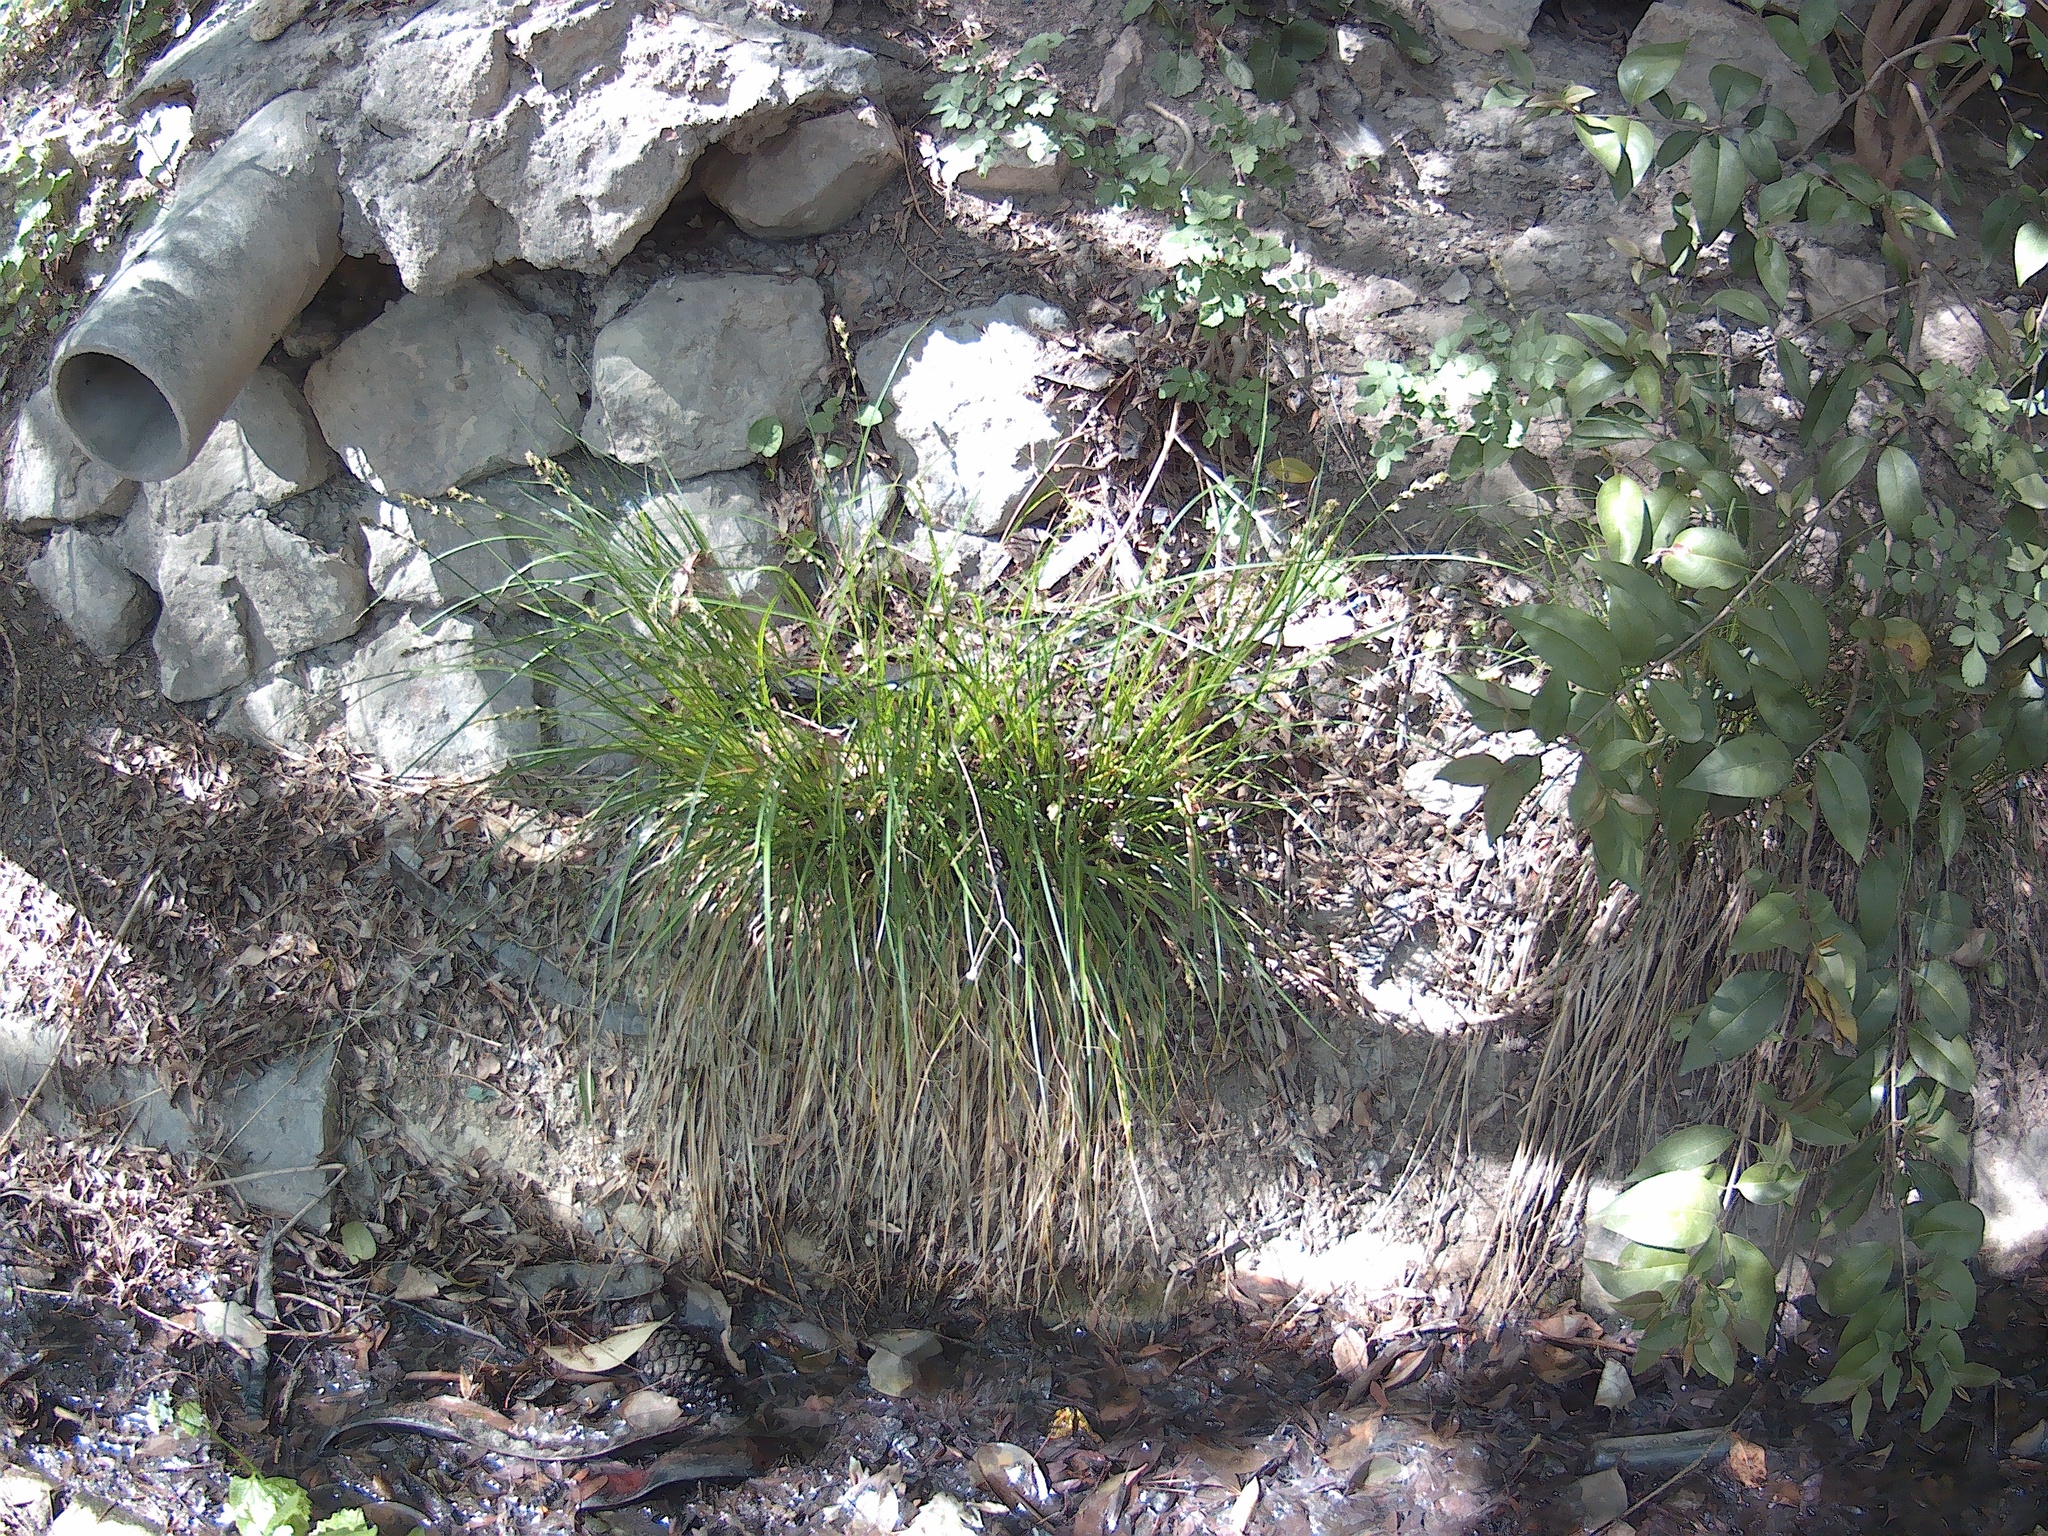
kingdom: Plantae
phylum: Tracheophyta
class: Liliopsida
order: Poales
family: Cyperaceae
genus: Carex
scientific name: Carex divulsa
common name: Grassland sedge
